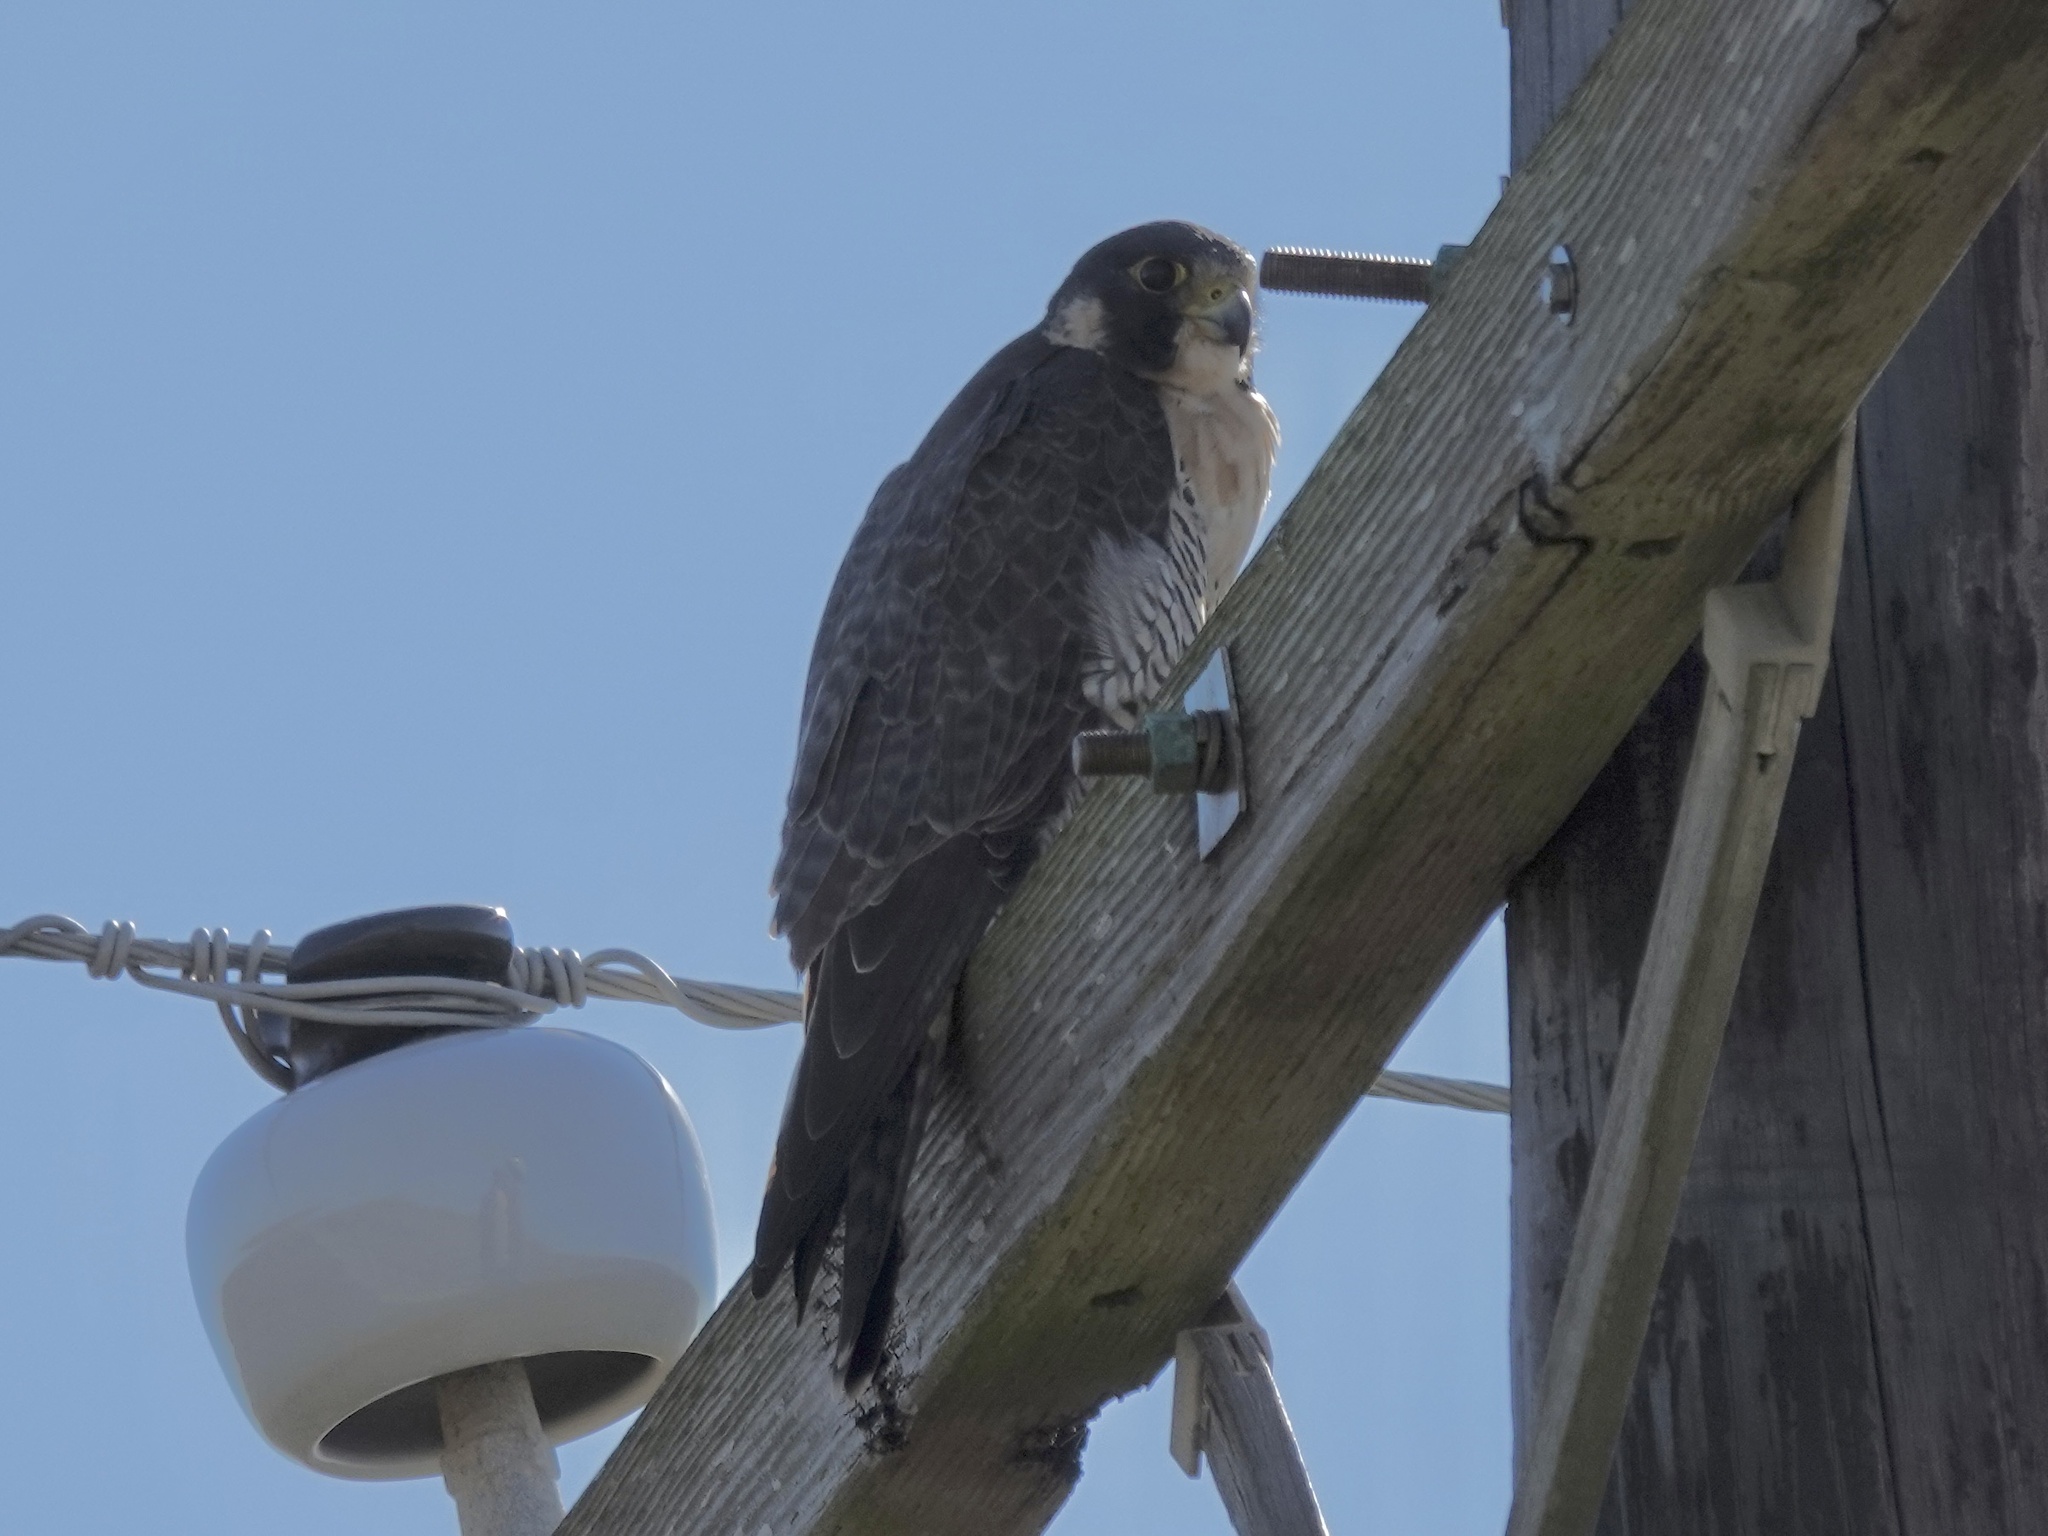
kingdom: Animalia
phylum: Chordata
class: Aves
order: Falconiformes
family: Falconidae
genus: Falco
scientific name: Falco peregrinus
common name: Peregrine falcon
